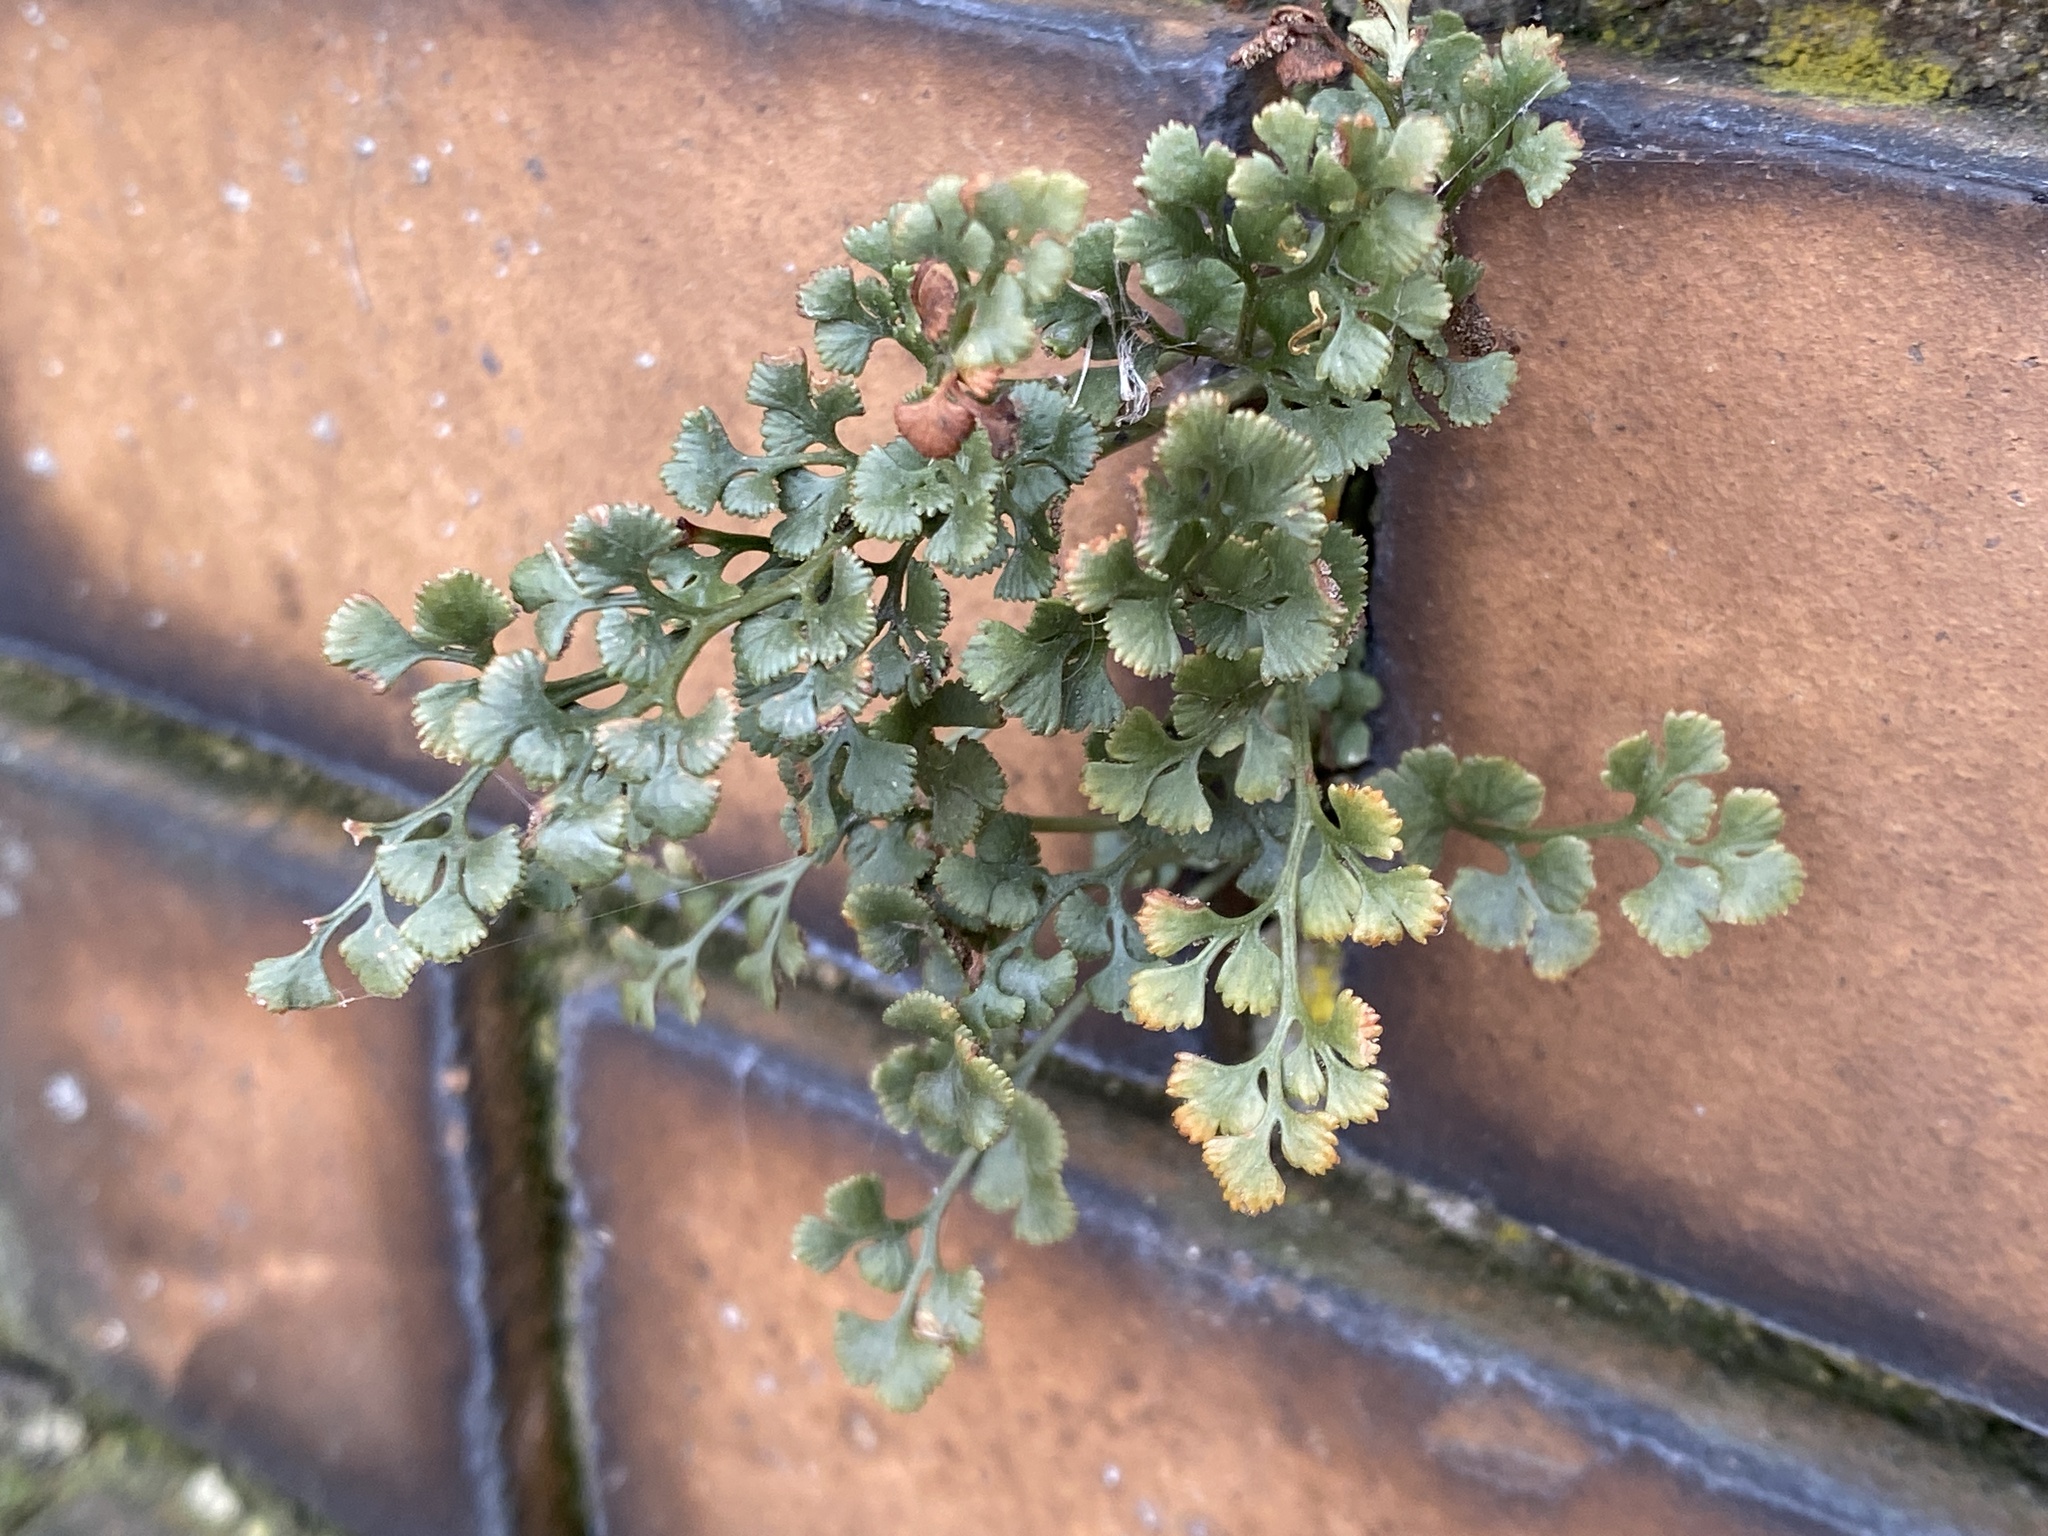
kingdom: Plantae
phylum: Tracheophyta
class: Polypodiopsida
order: Polypodiales
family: Aspleniaceae
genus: Asplenium
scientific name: Asplenium ruta-muraria
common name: Wall-rue
